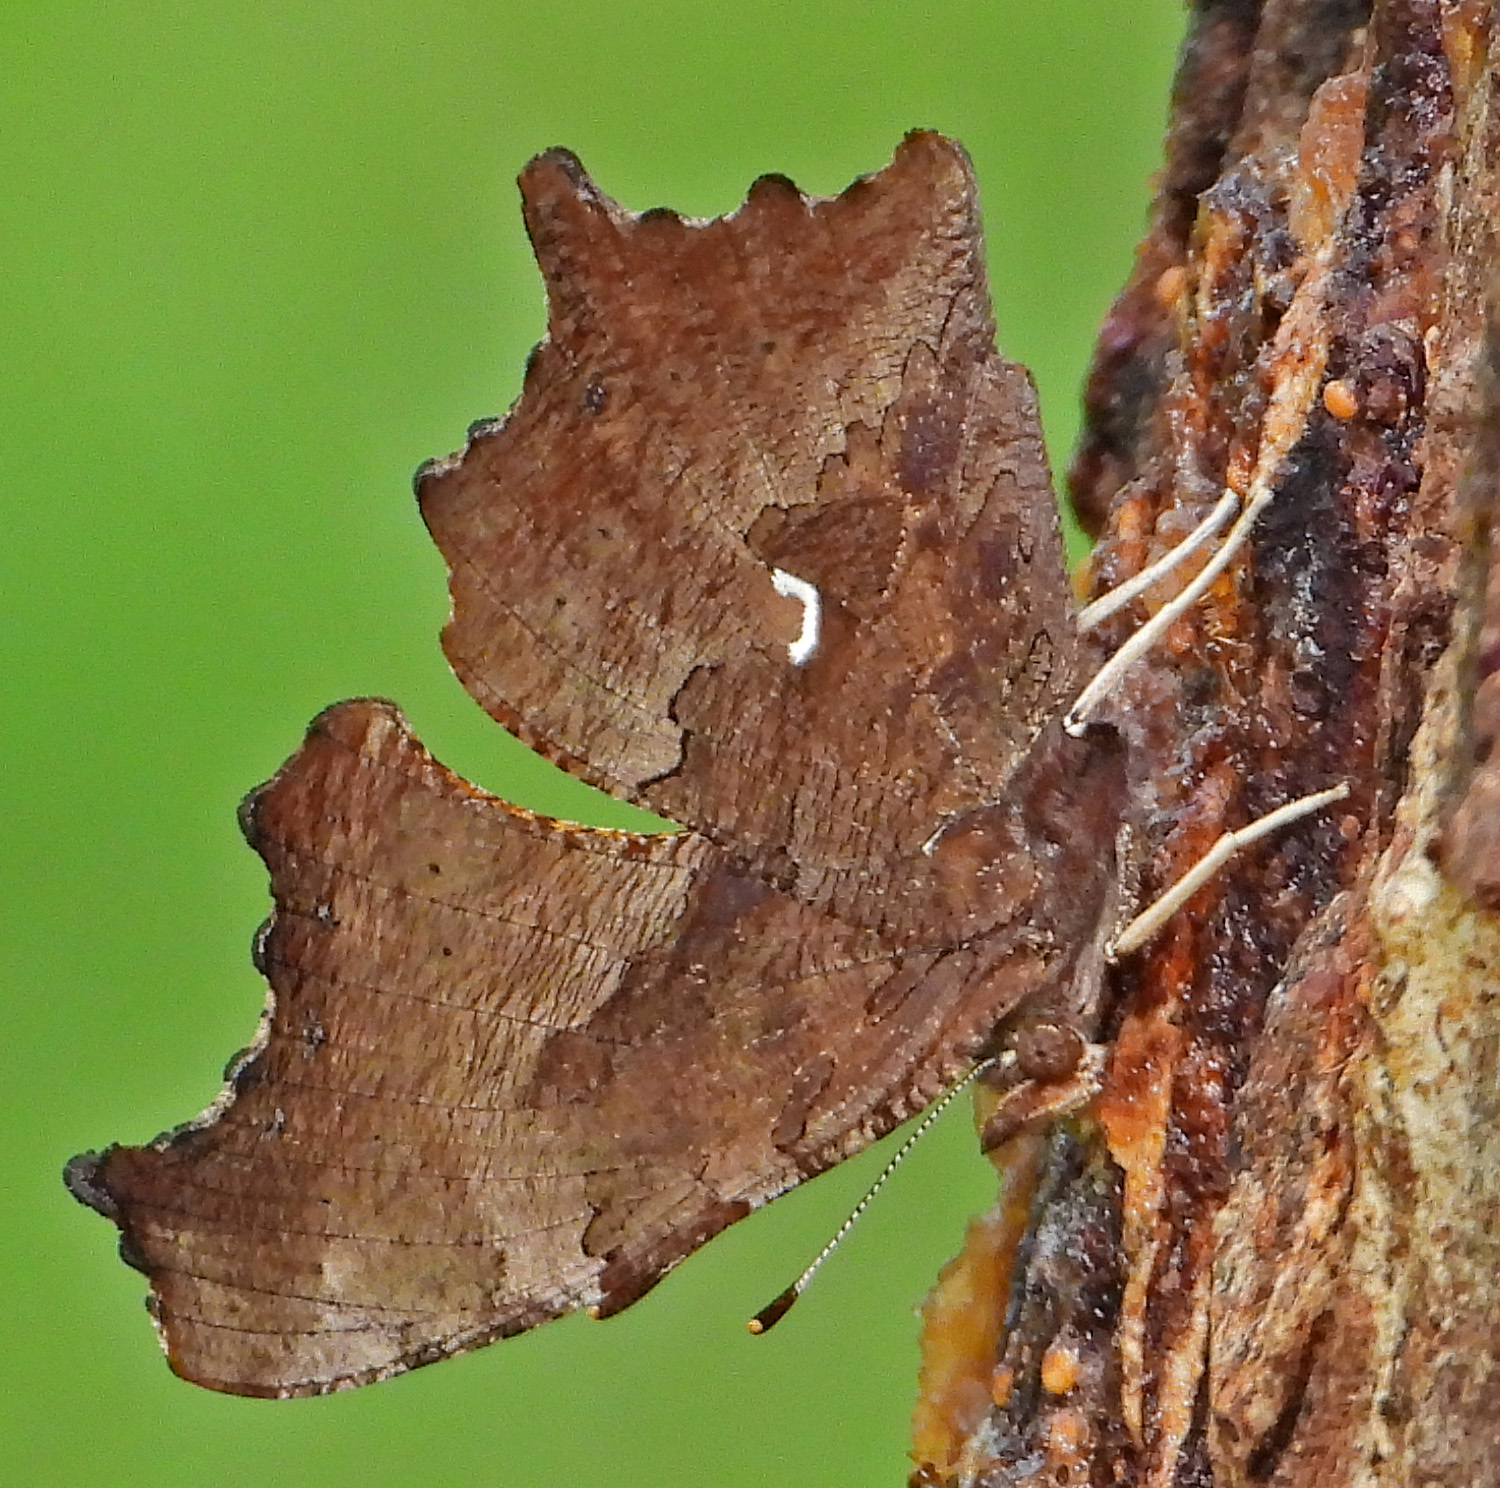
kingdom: Animalia
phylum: Arthropoda
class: Insecta
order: Lepidoptera
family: Nymphalidae
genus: Polygonia
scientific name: Polygonia comma
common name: Eastern comma
